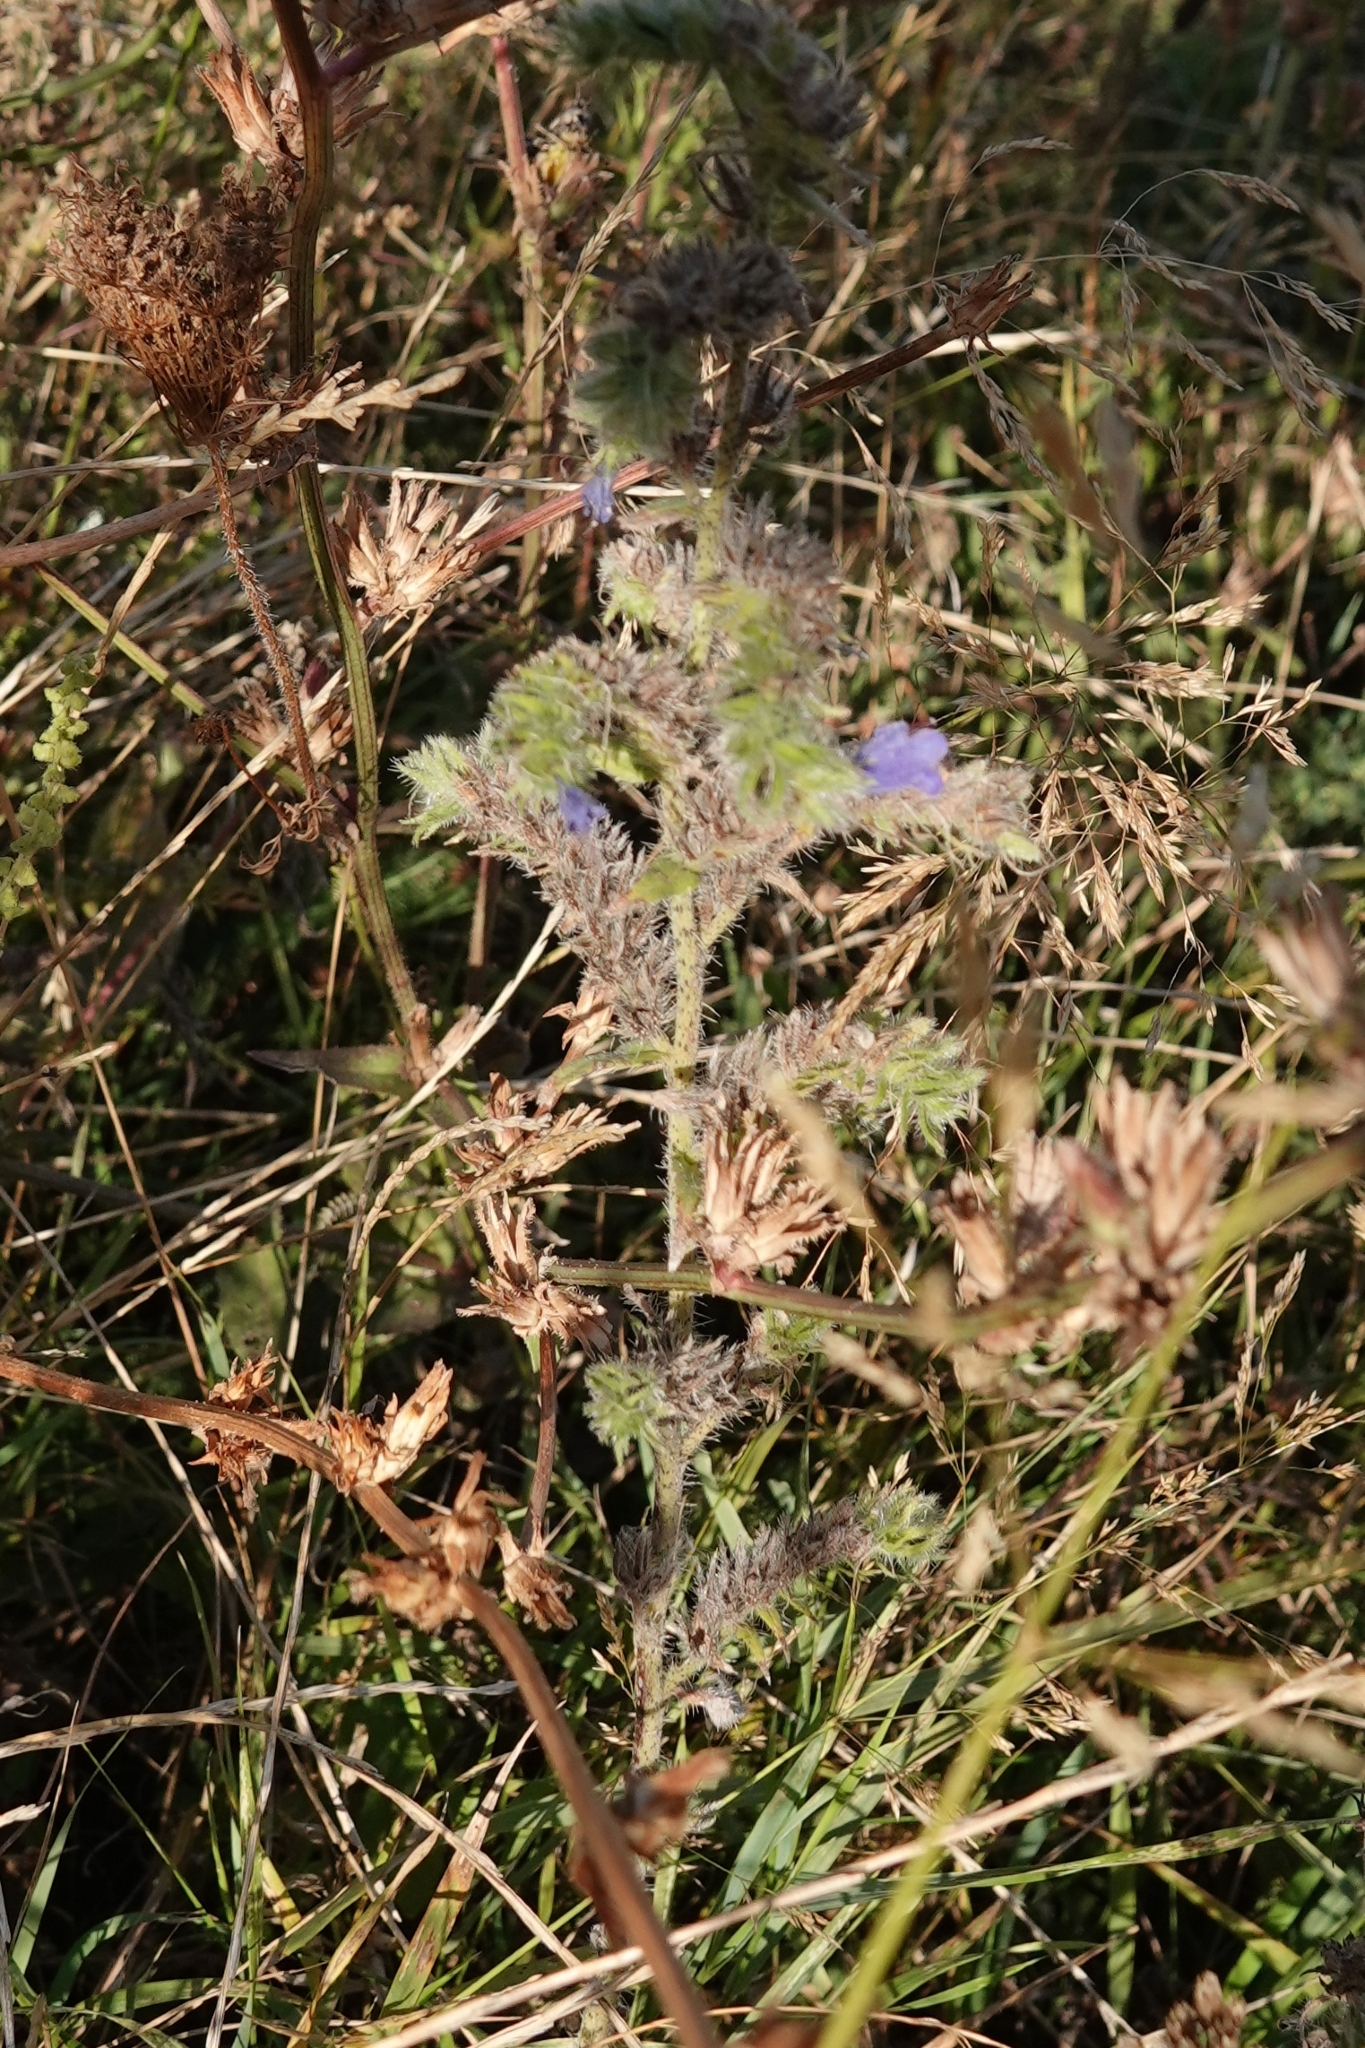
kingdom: Plantae
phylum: Tracheophyta
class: Magnoliopsida
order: Boraginales
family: Boraginaceae
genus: Echium
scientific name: Echium vulgare
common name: Common viper's bugloss
